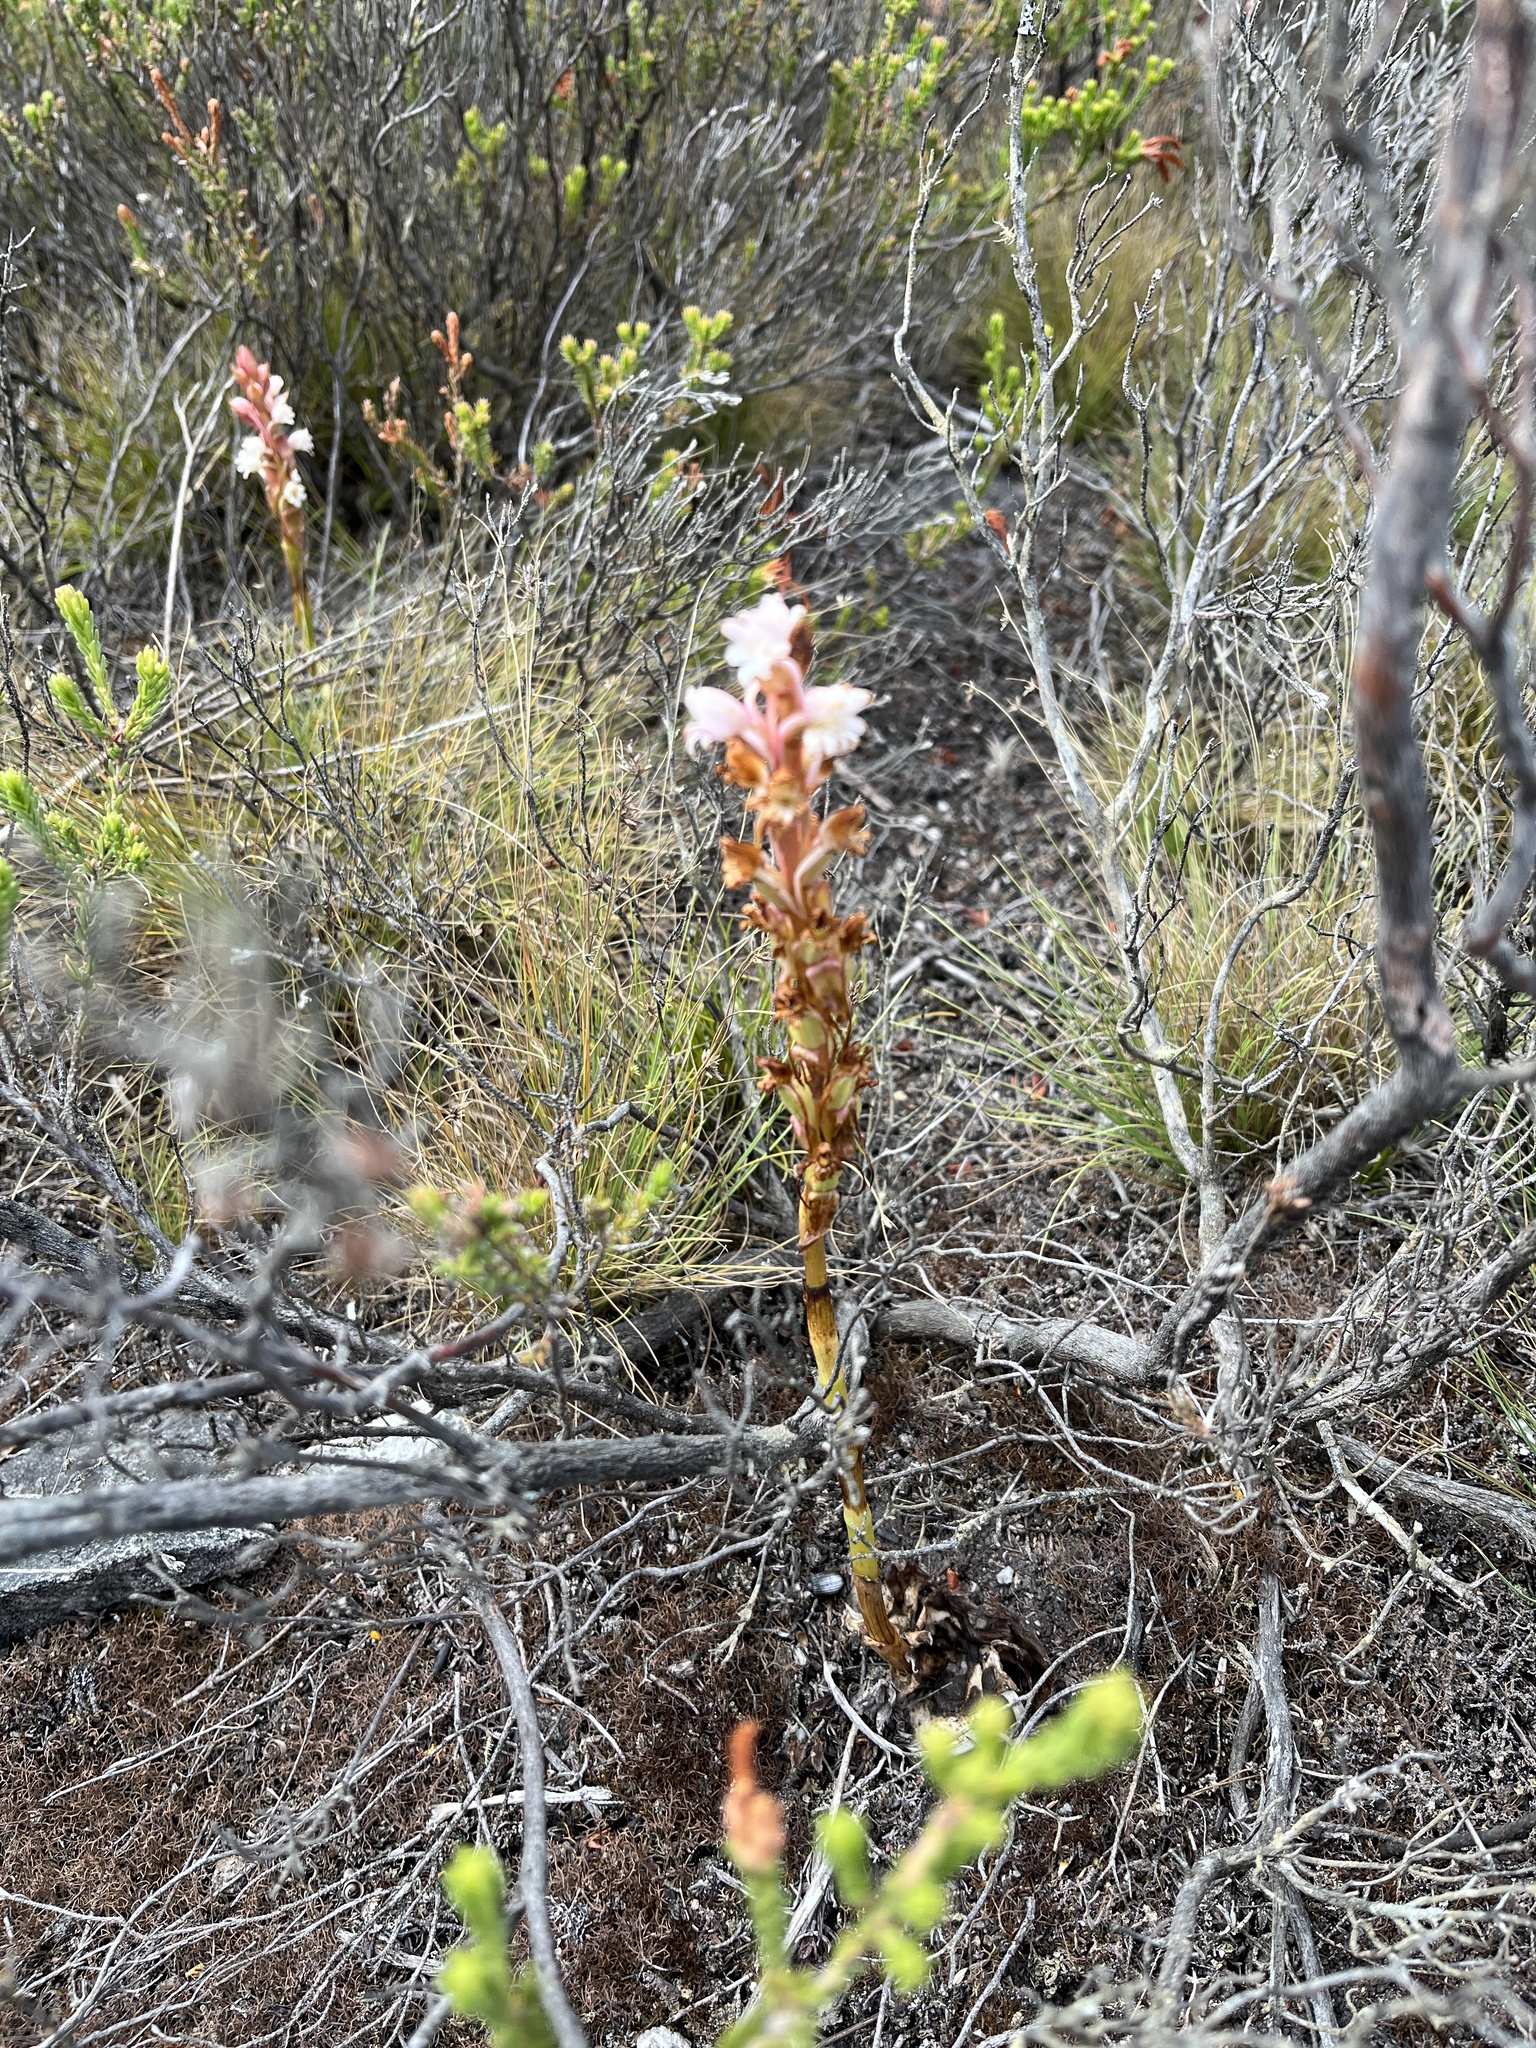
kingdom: Plantae
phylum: Tracheophyta
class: Liliopsida
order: Asparagales
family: Orchidaceae
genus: Satyrium
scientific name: Satyrium acuminatum
